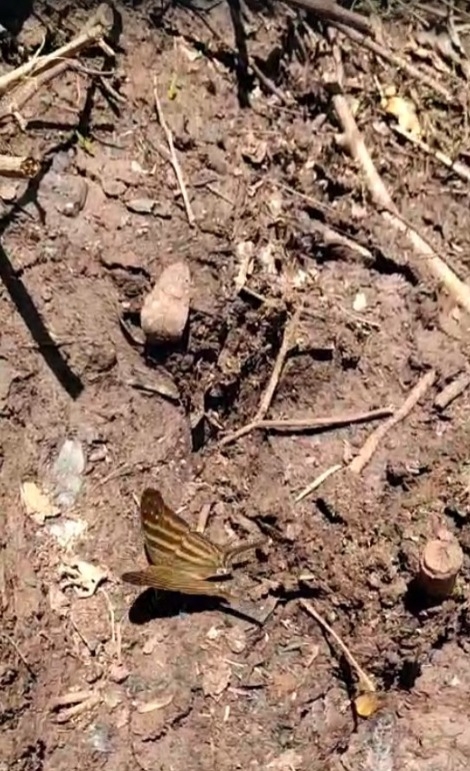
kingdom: Animalia
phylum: Arthropoda
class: Insecta
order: Lepidoptera
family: Nymphalidae
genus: Marpesia
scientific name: Marpesia chiron
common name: Many-banded daggerwing
